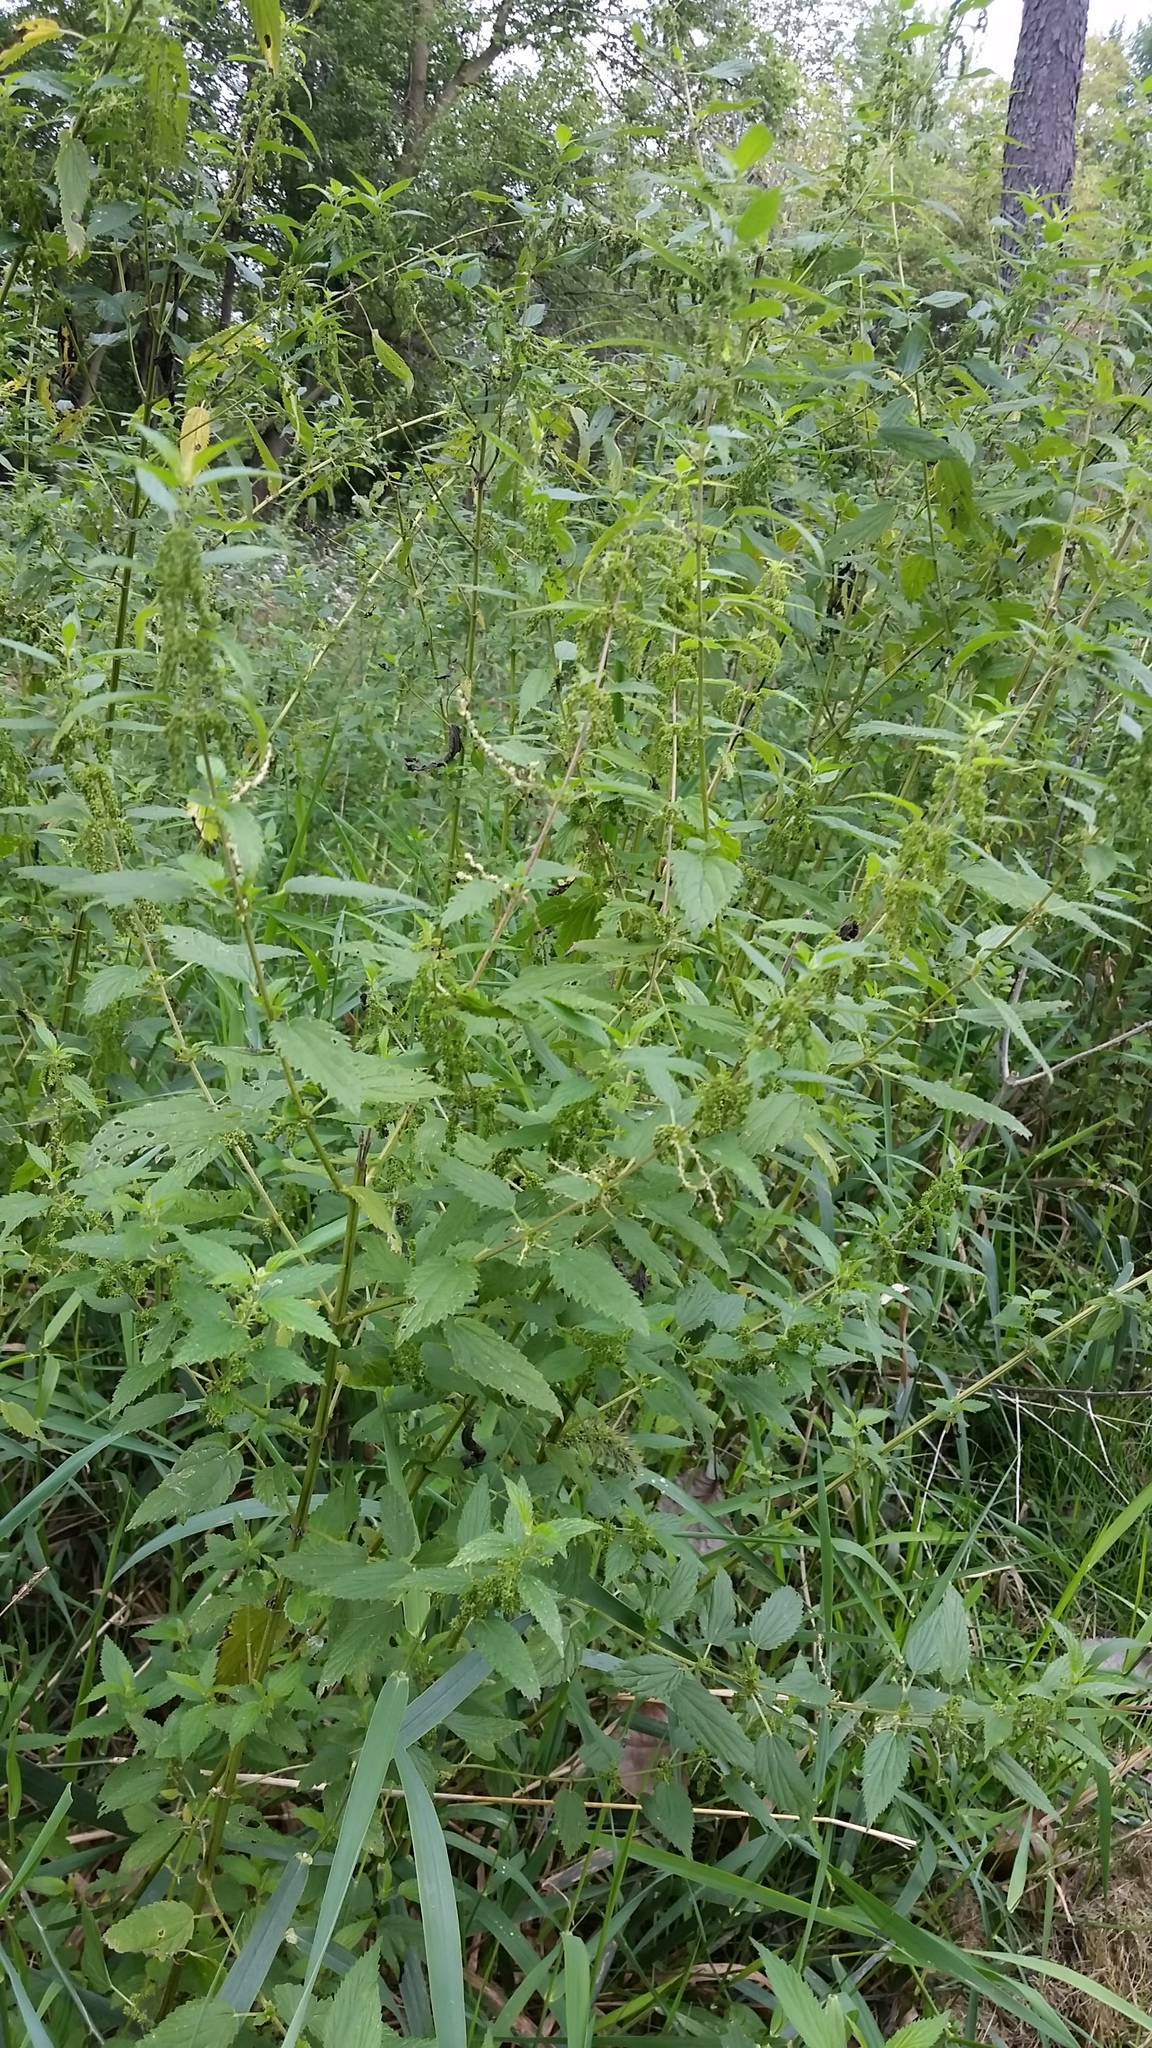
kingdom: Plantae
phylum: Tracheophyta
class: Magnoliopsida
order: Rosales
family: Urticaceae
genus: Urtica
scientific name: Urtica gracilis
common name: Slender stinging nettle
